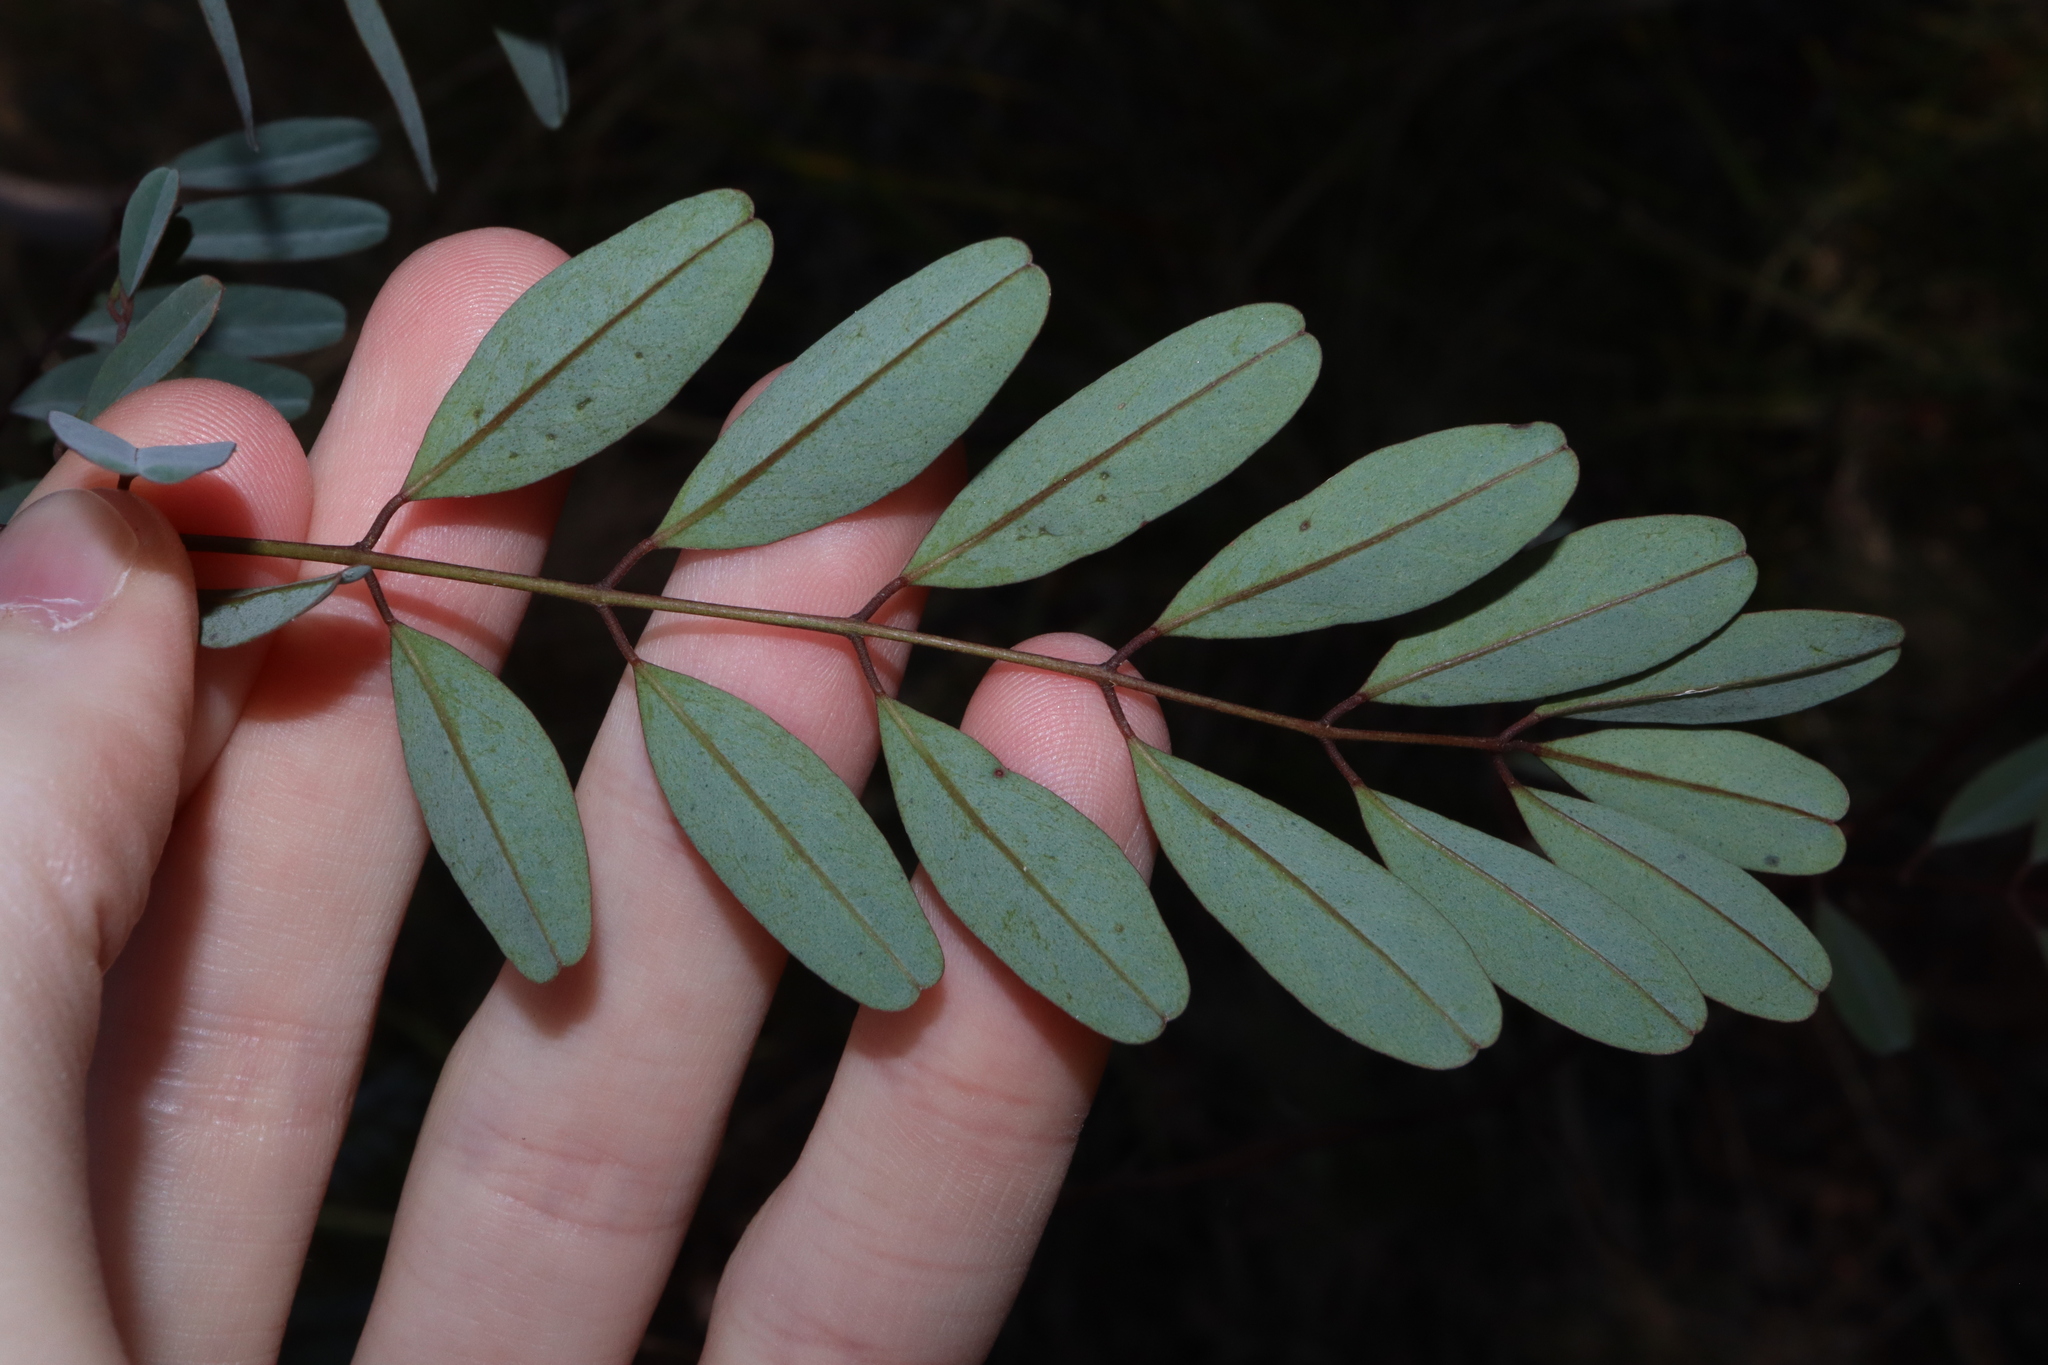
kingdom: Plantae
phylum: Tracheophyta
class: Magnoliopsida
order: Fabales
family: Fabaceae
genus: Indigofera
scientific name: Indigofera australis
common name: Australian indigo
